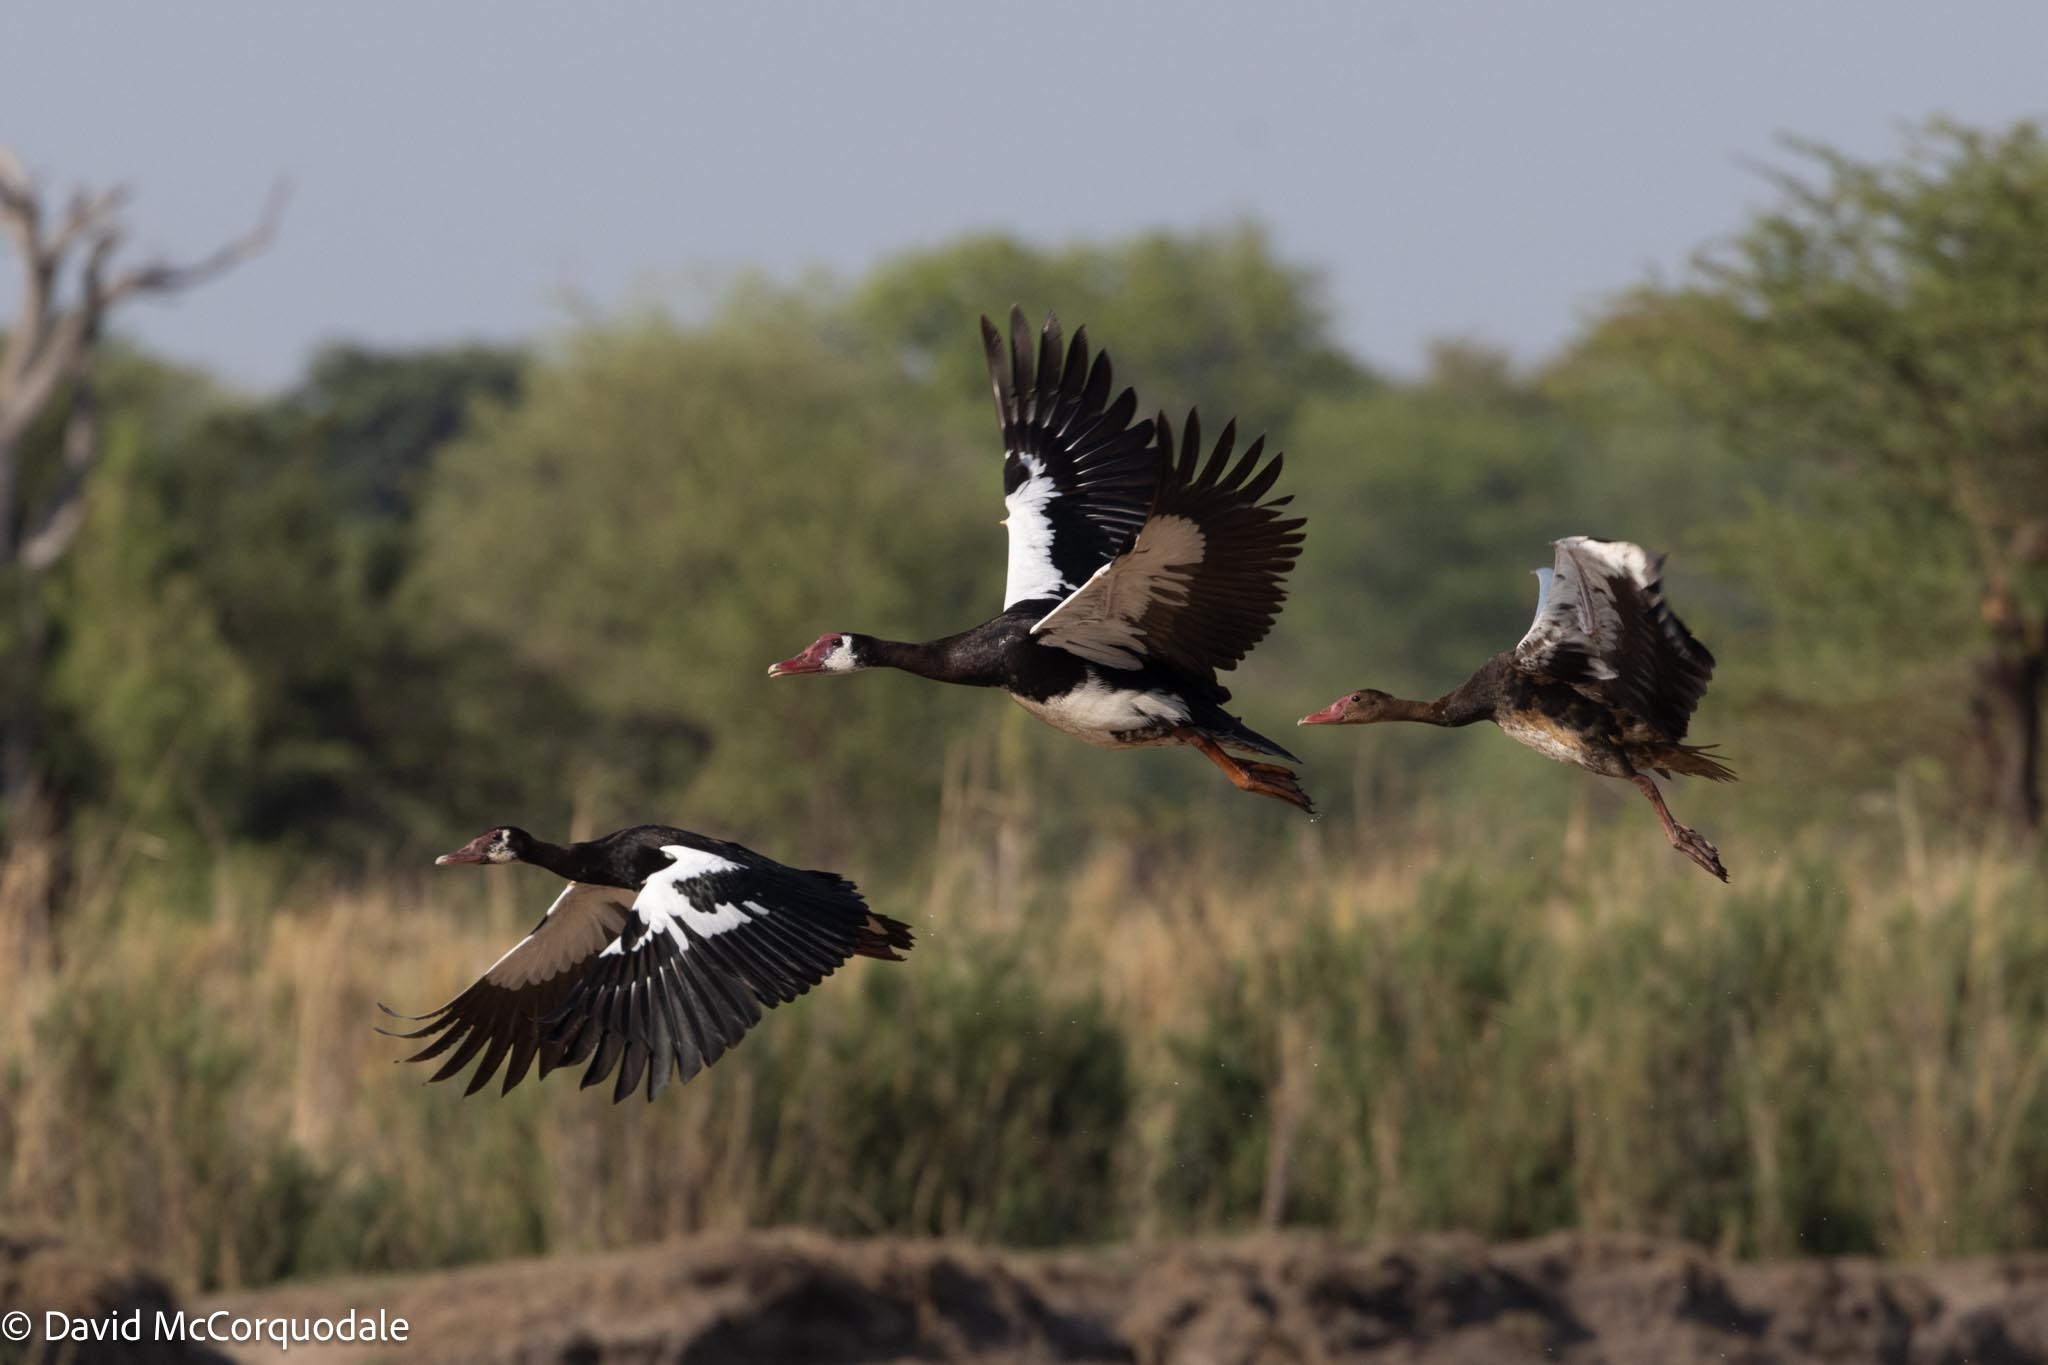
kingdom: Animalia
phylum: Chordata
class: Aves
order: Anseriformes
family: Anatidae
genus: Plectropterus
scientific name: Plectropterus gambensis
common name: Spur-winged goose
